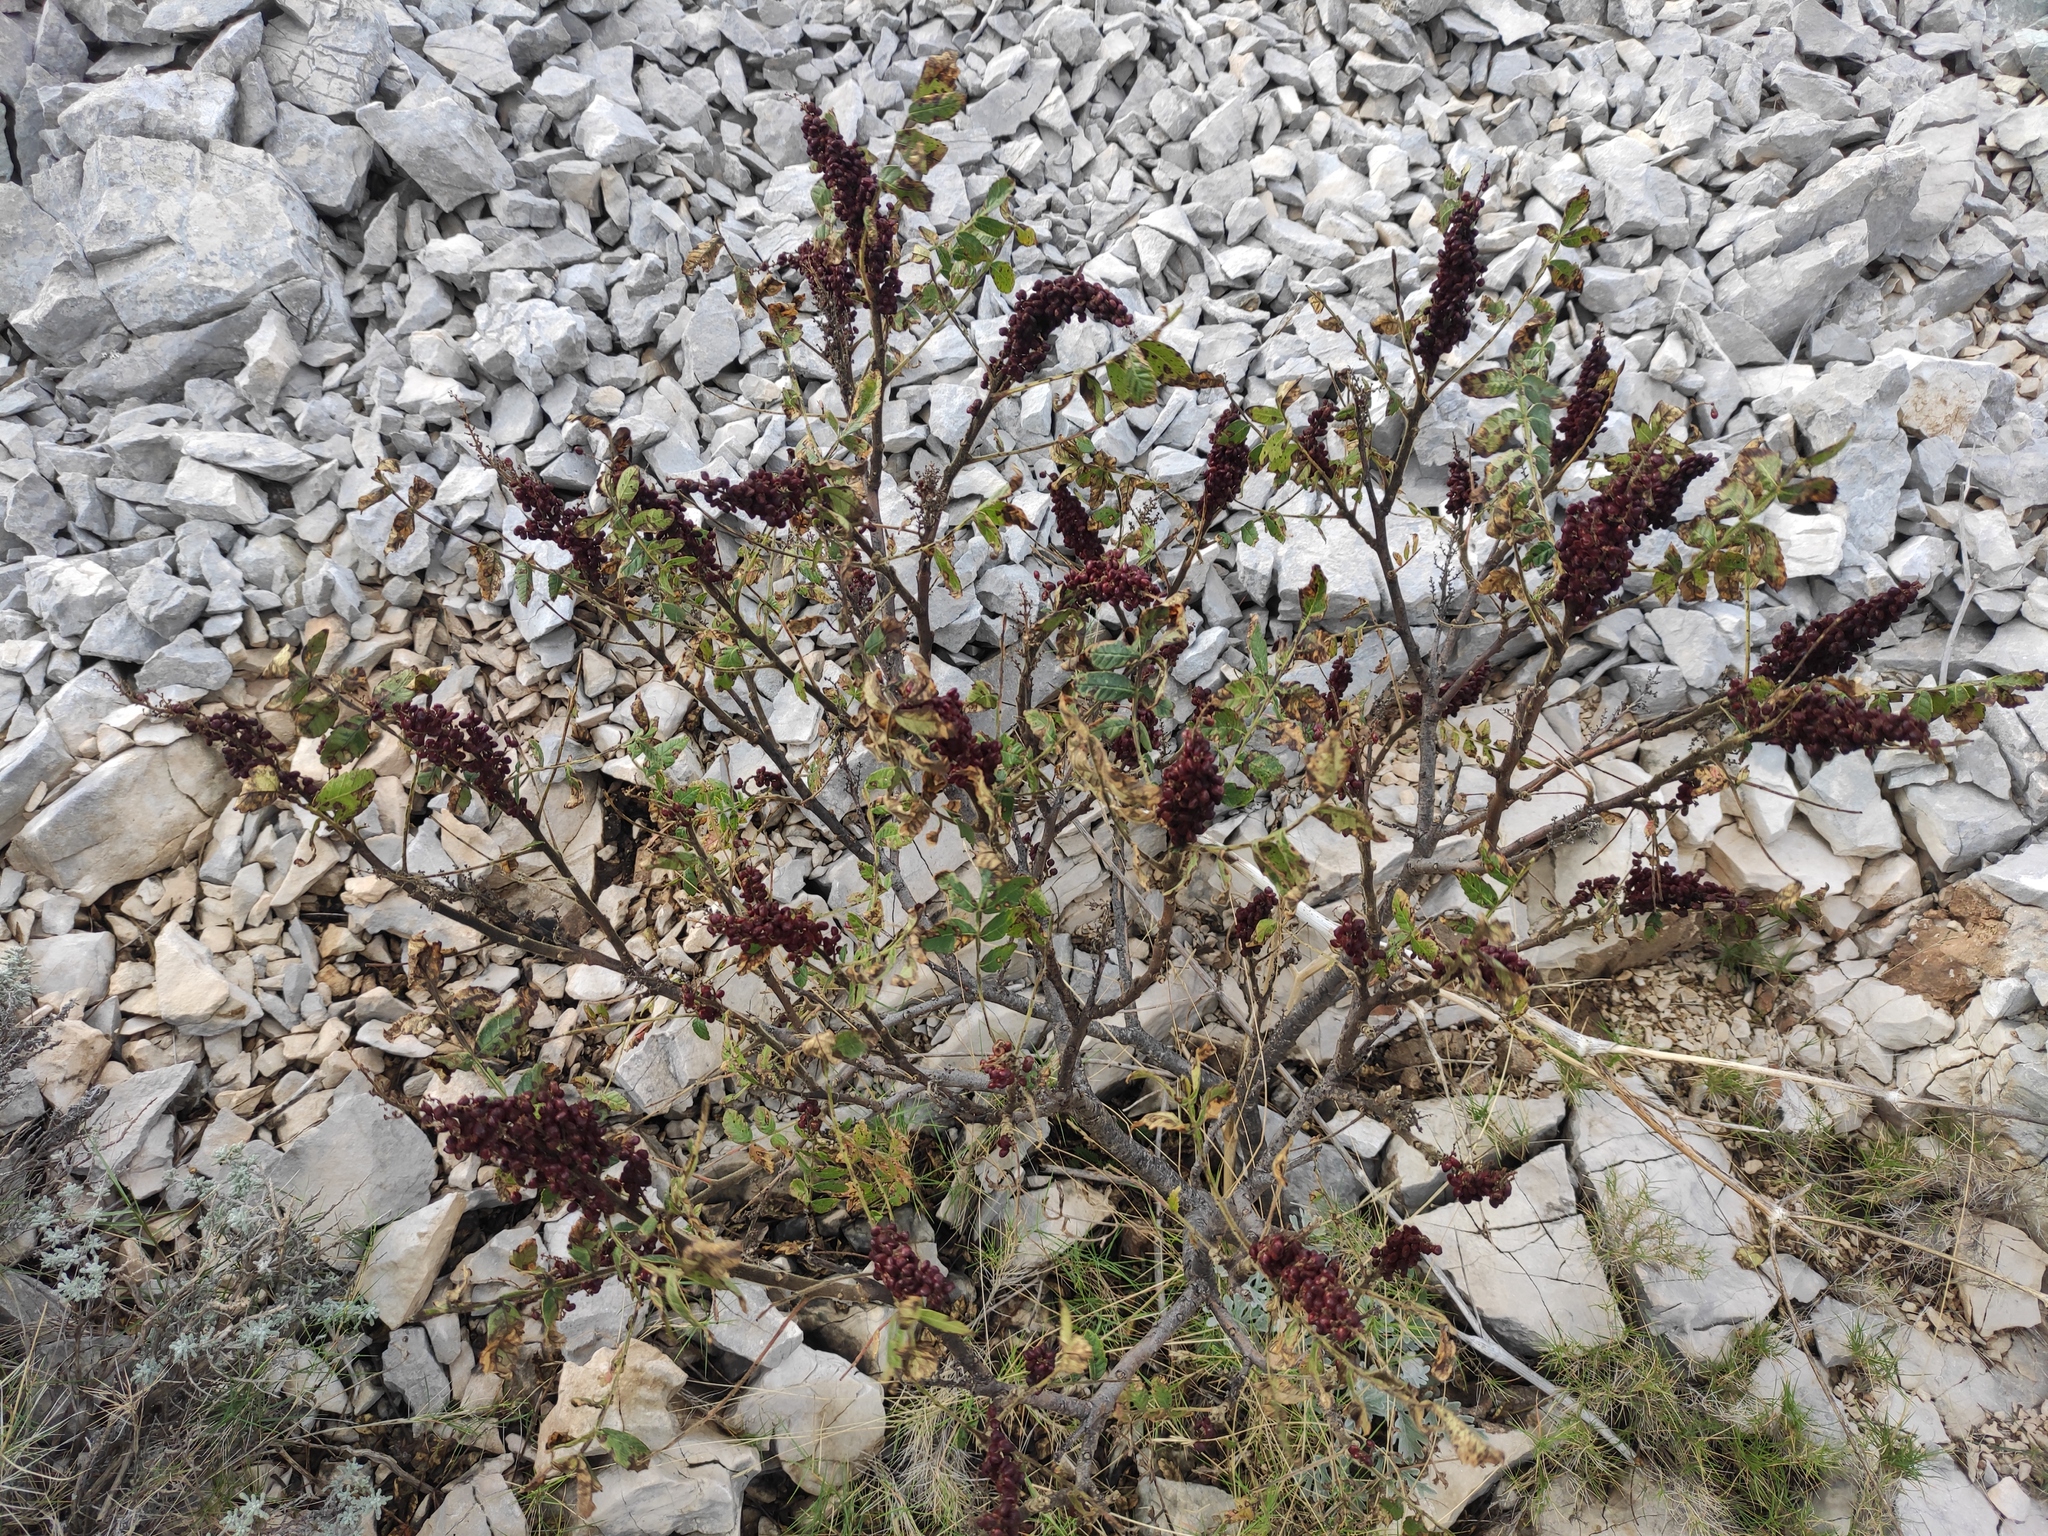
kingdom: Plantae
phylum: Tracheophyta
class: Magnoliopsida
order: Sapindales
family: Anacardiaceae
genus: Rhus
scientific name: Rhus coriaria
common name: Tanner's sumach
